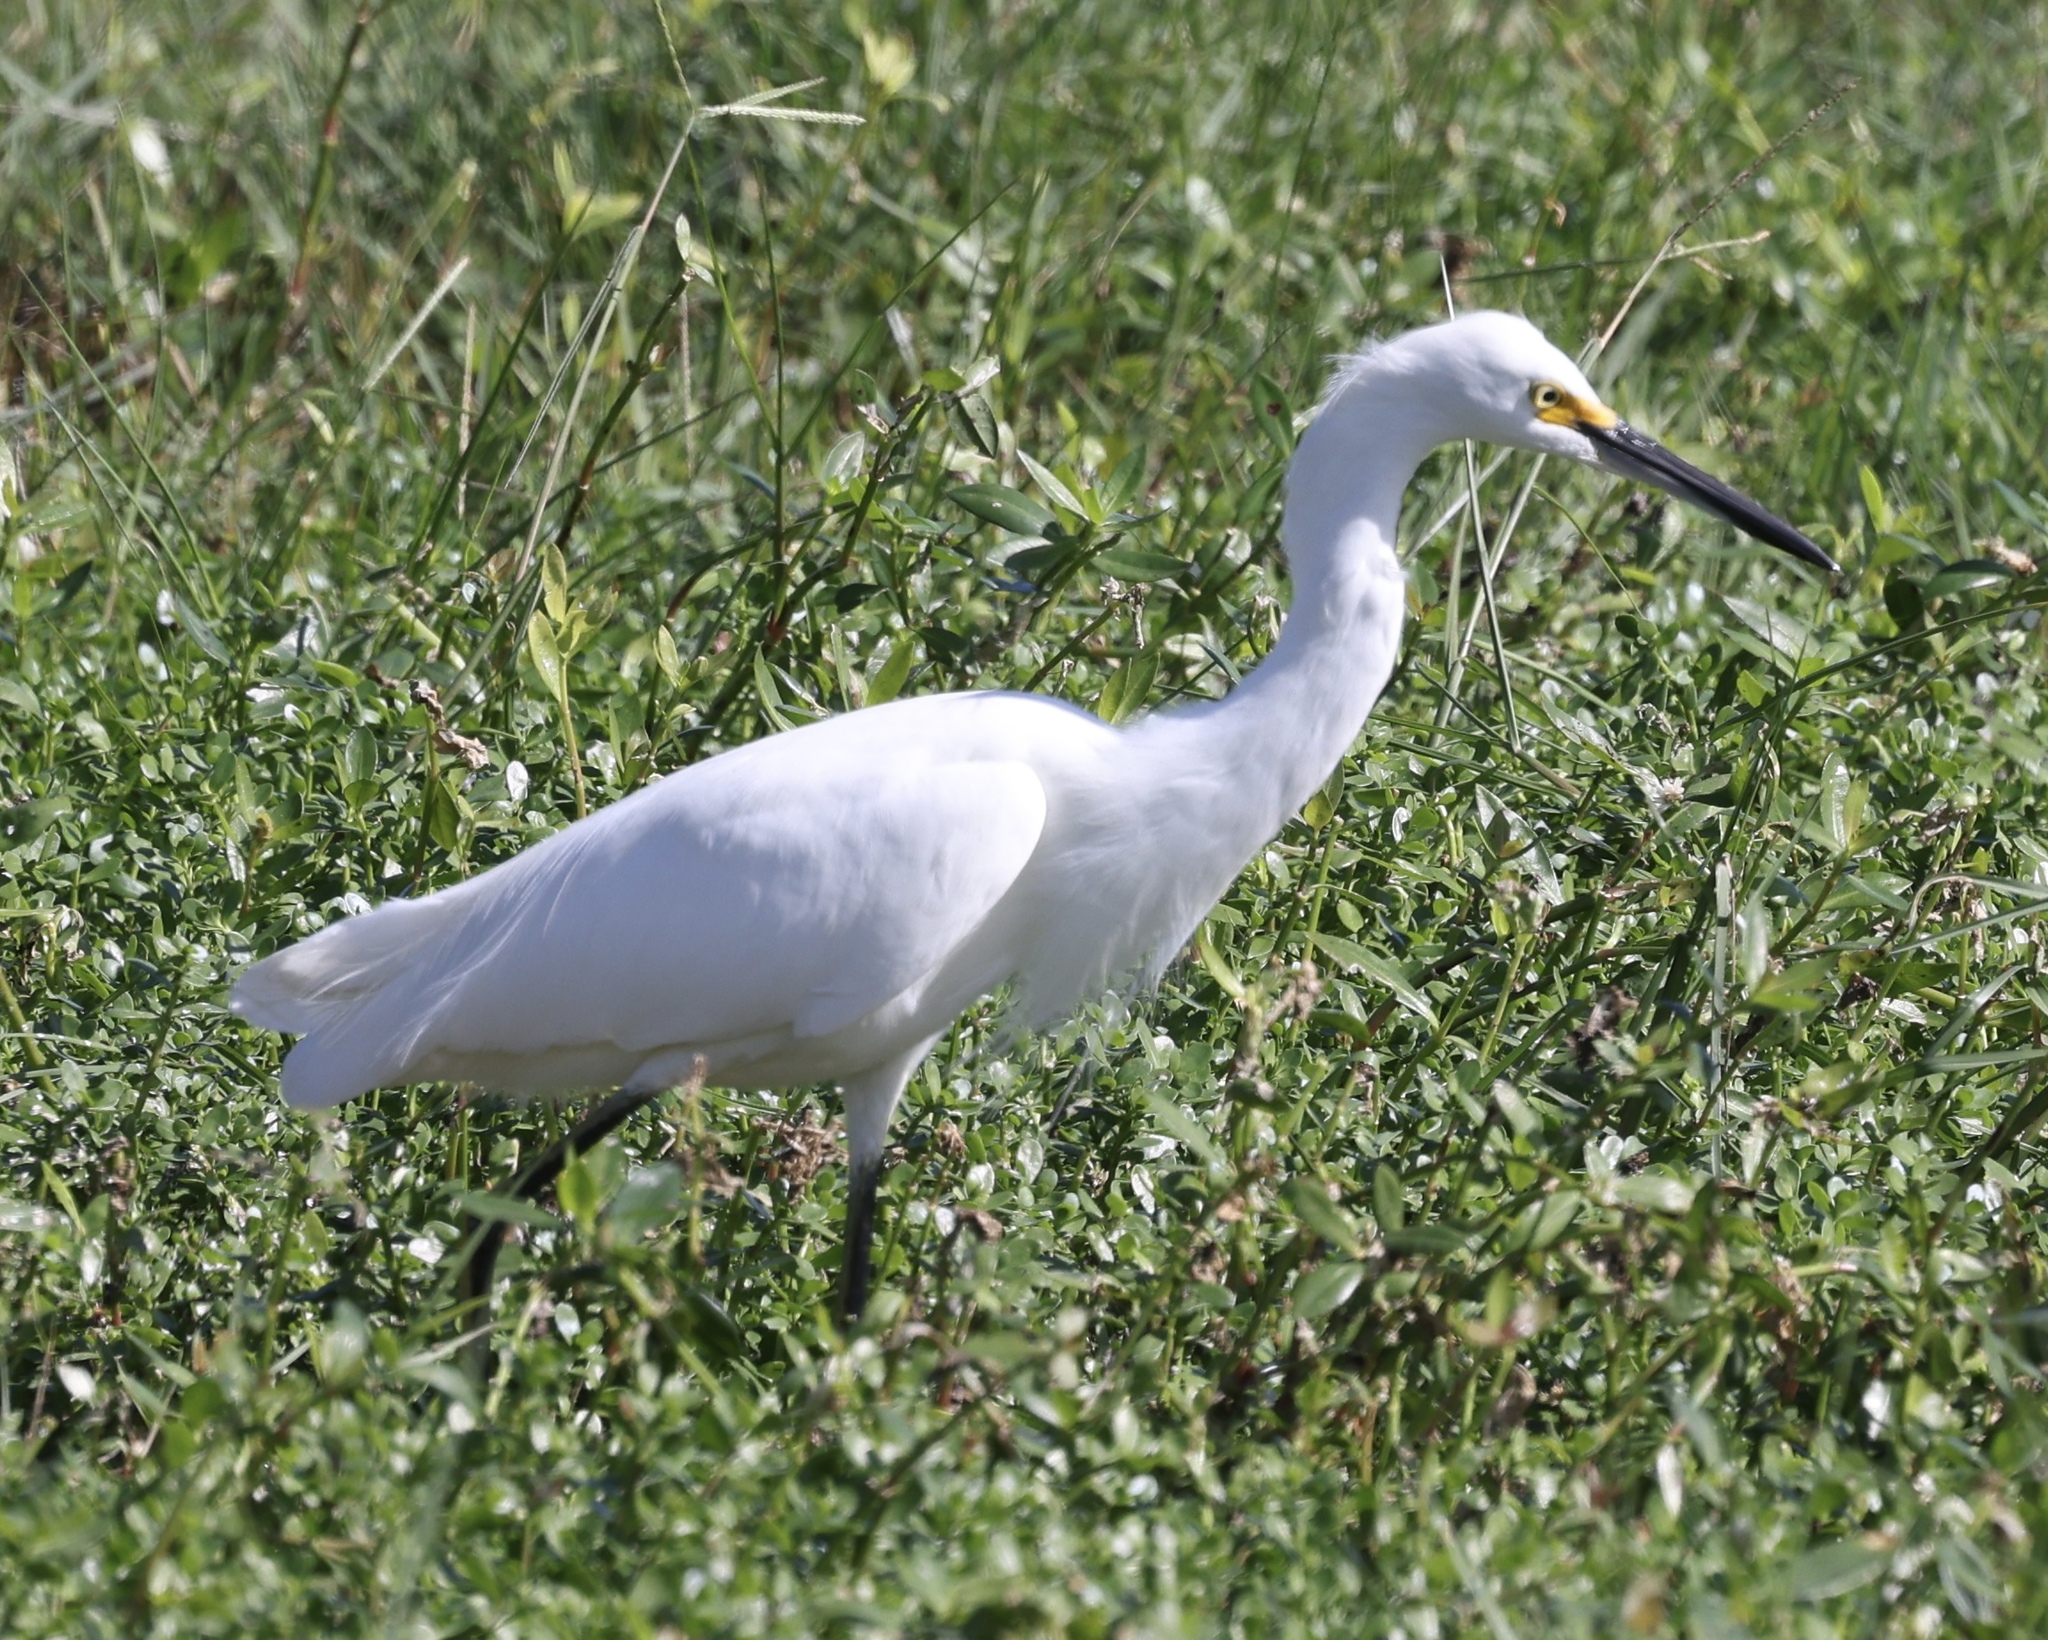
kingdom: Animalia
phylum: Chordata
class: Aves
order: Pelecaniformes
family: Ardeidae
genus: Egretta
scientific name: Egretta thula
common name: Snowy egret
